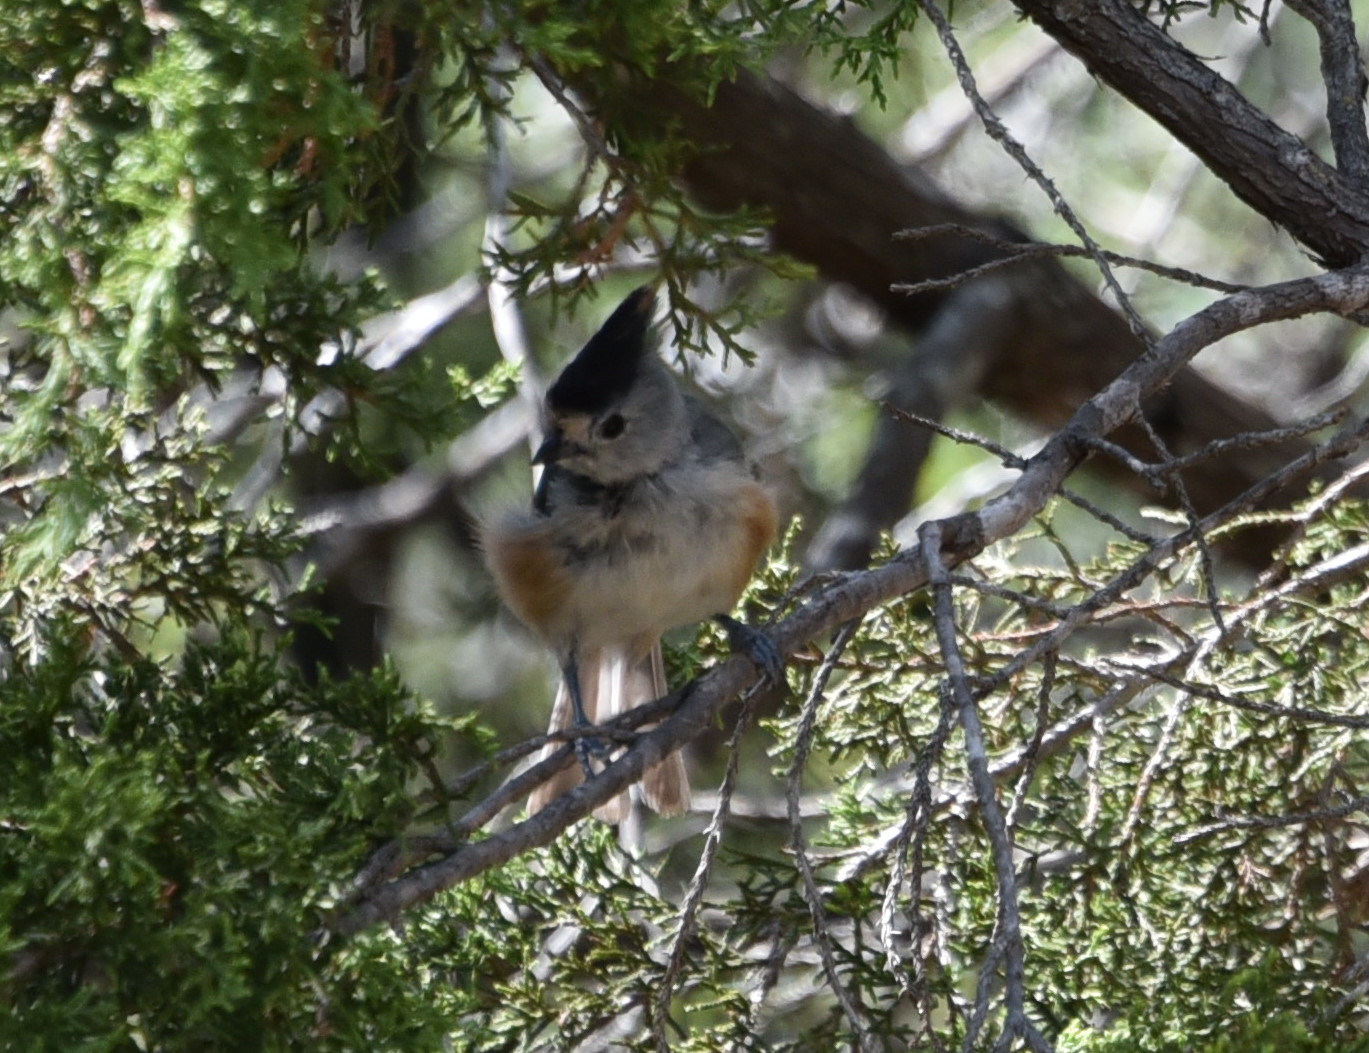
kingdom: Animalia
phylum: Chordata
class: Aves
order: Passeriformes
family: Paridae
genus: Baeolophus
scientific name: Baeolophus atricristatus
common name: Black-crested titmouse
